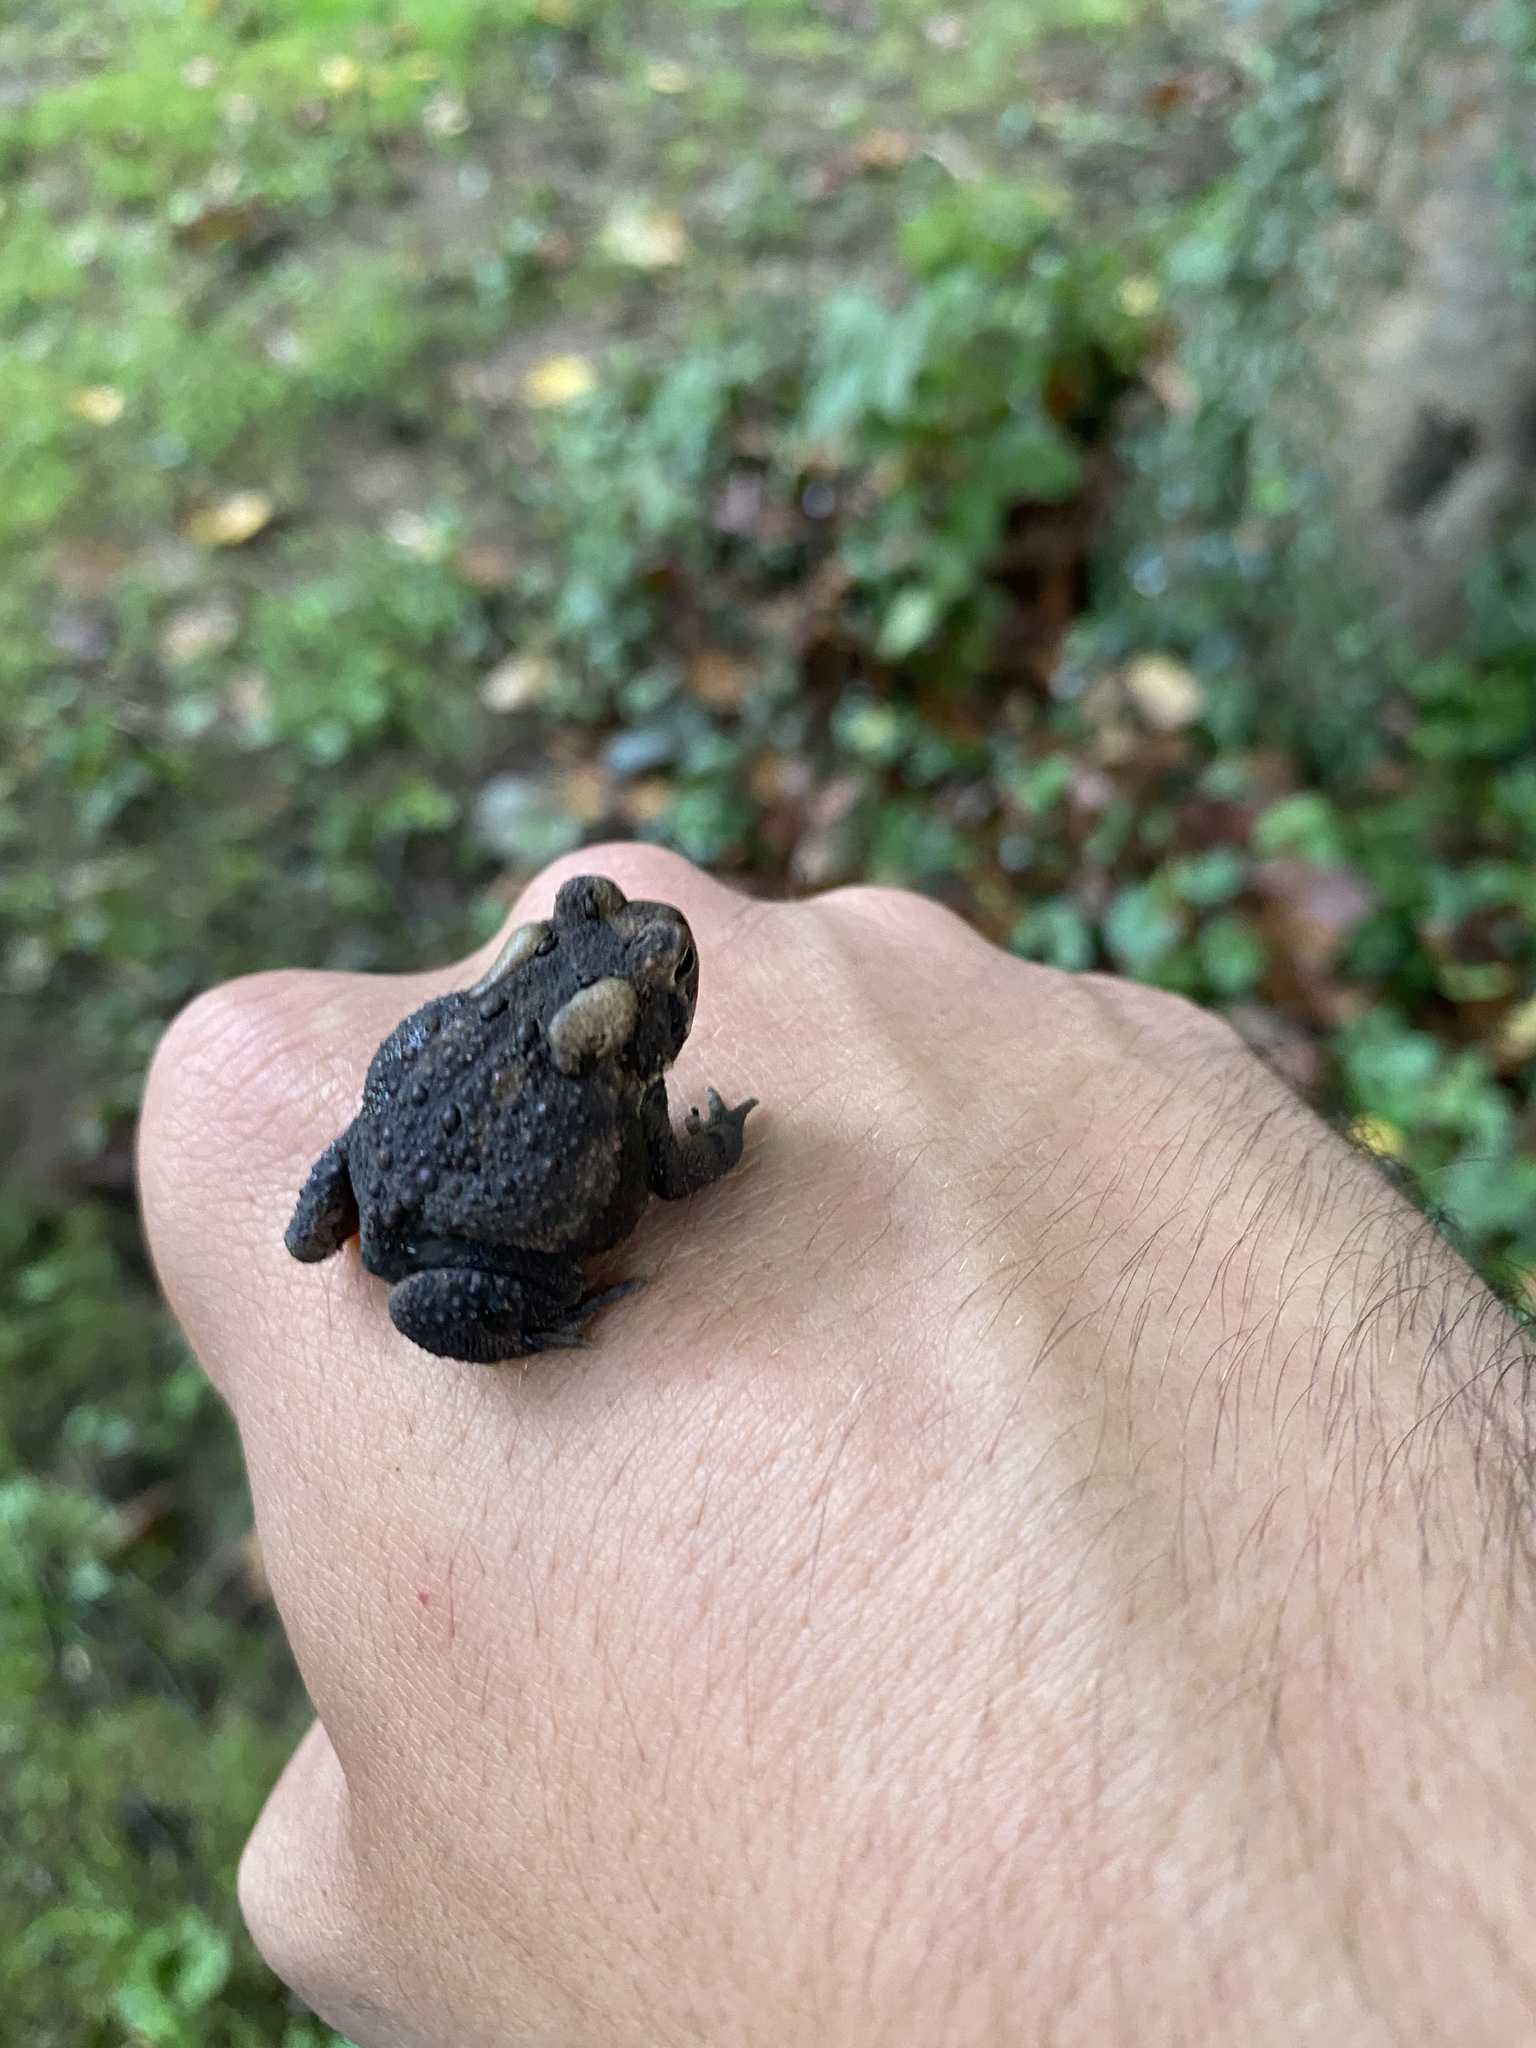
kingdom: Animalia
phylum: Chordata
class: Amphibia
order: Anura
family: Bufonidae
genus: Anaxyrus
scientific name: Anaxyrus americanus
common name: American toad
